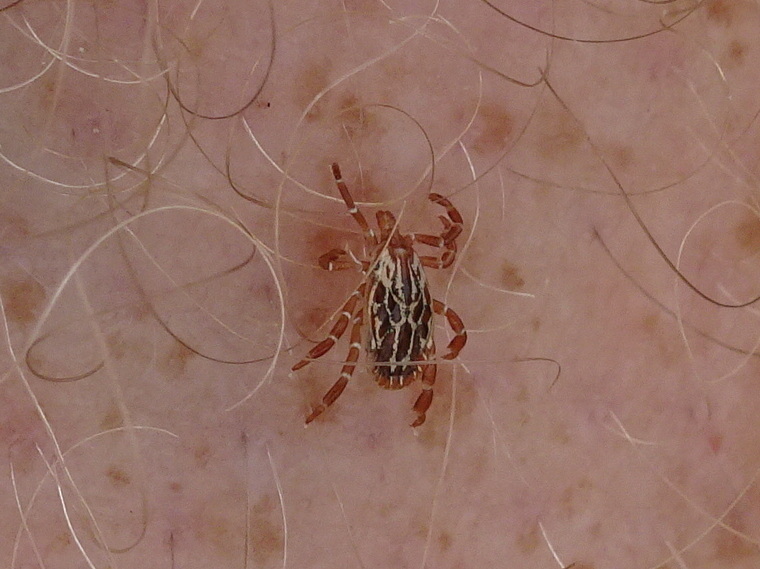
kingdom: Animalia
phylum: Arthropoda
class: Arachnida
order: Ixodida
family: Ixodidae
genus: Amblyomma
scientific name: Amblyomma maculatum
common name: Gulf coast tick
